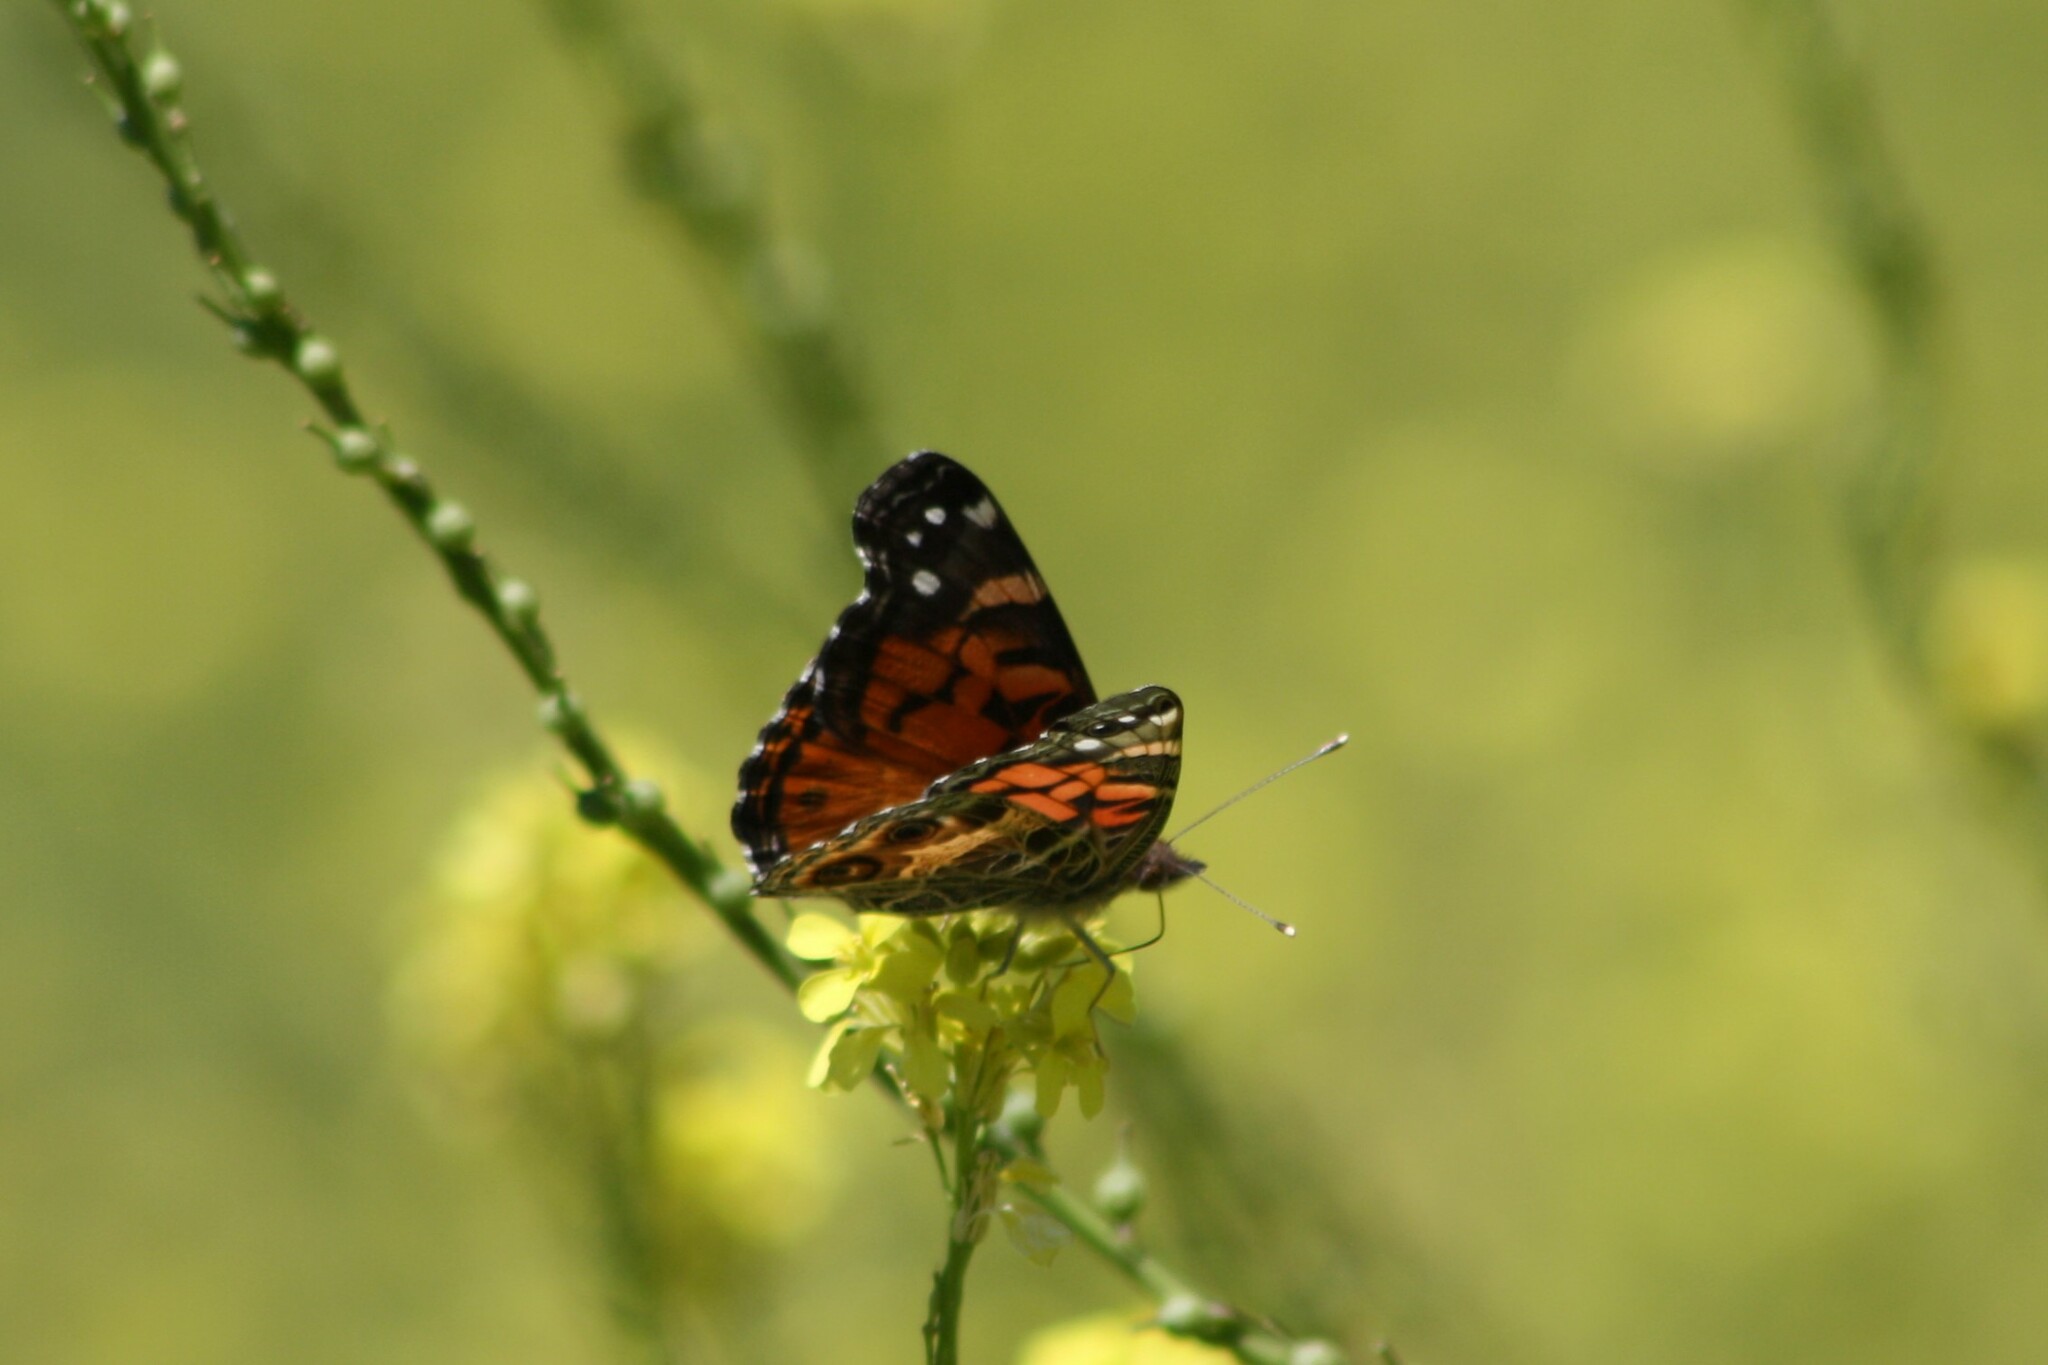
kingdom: Animalia
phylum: Arthropoda
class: Insecta
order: Lepidoptera
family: Nymphalidae
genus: Vanessa
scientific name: Vanessa virginiensis
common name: American lady
